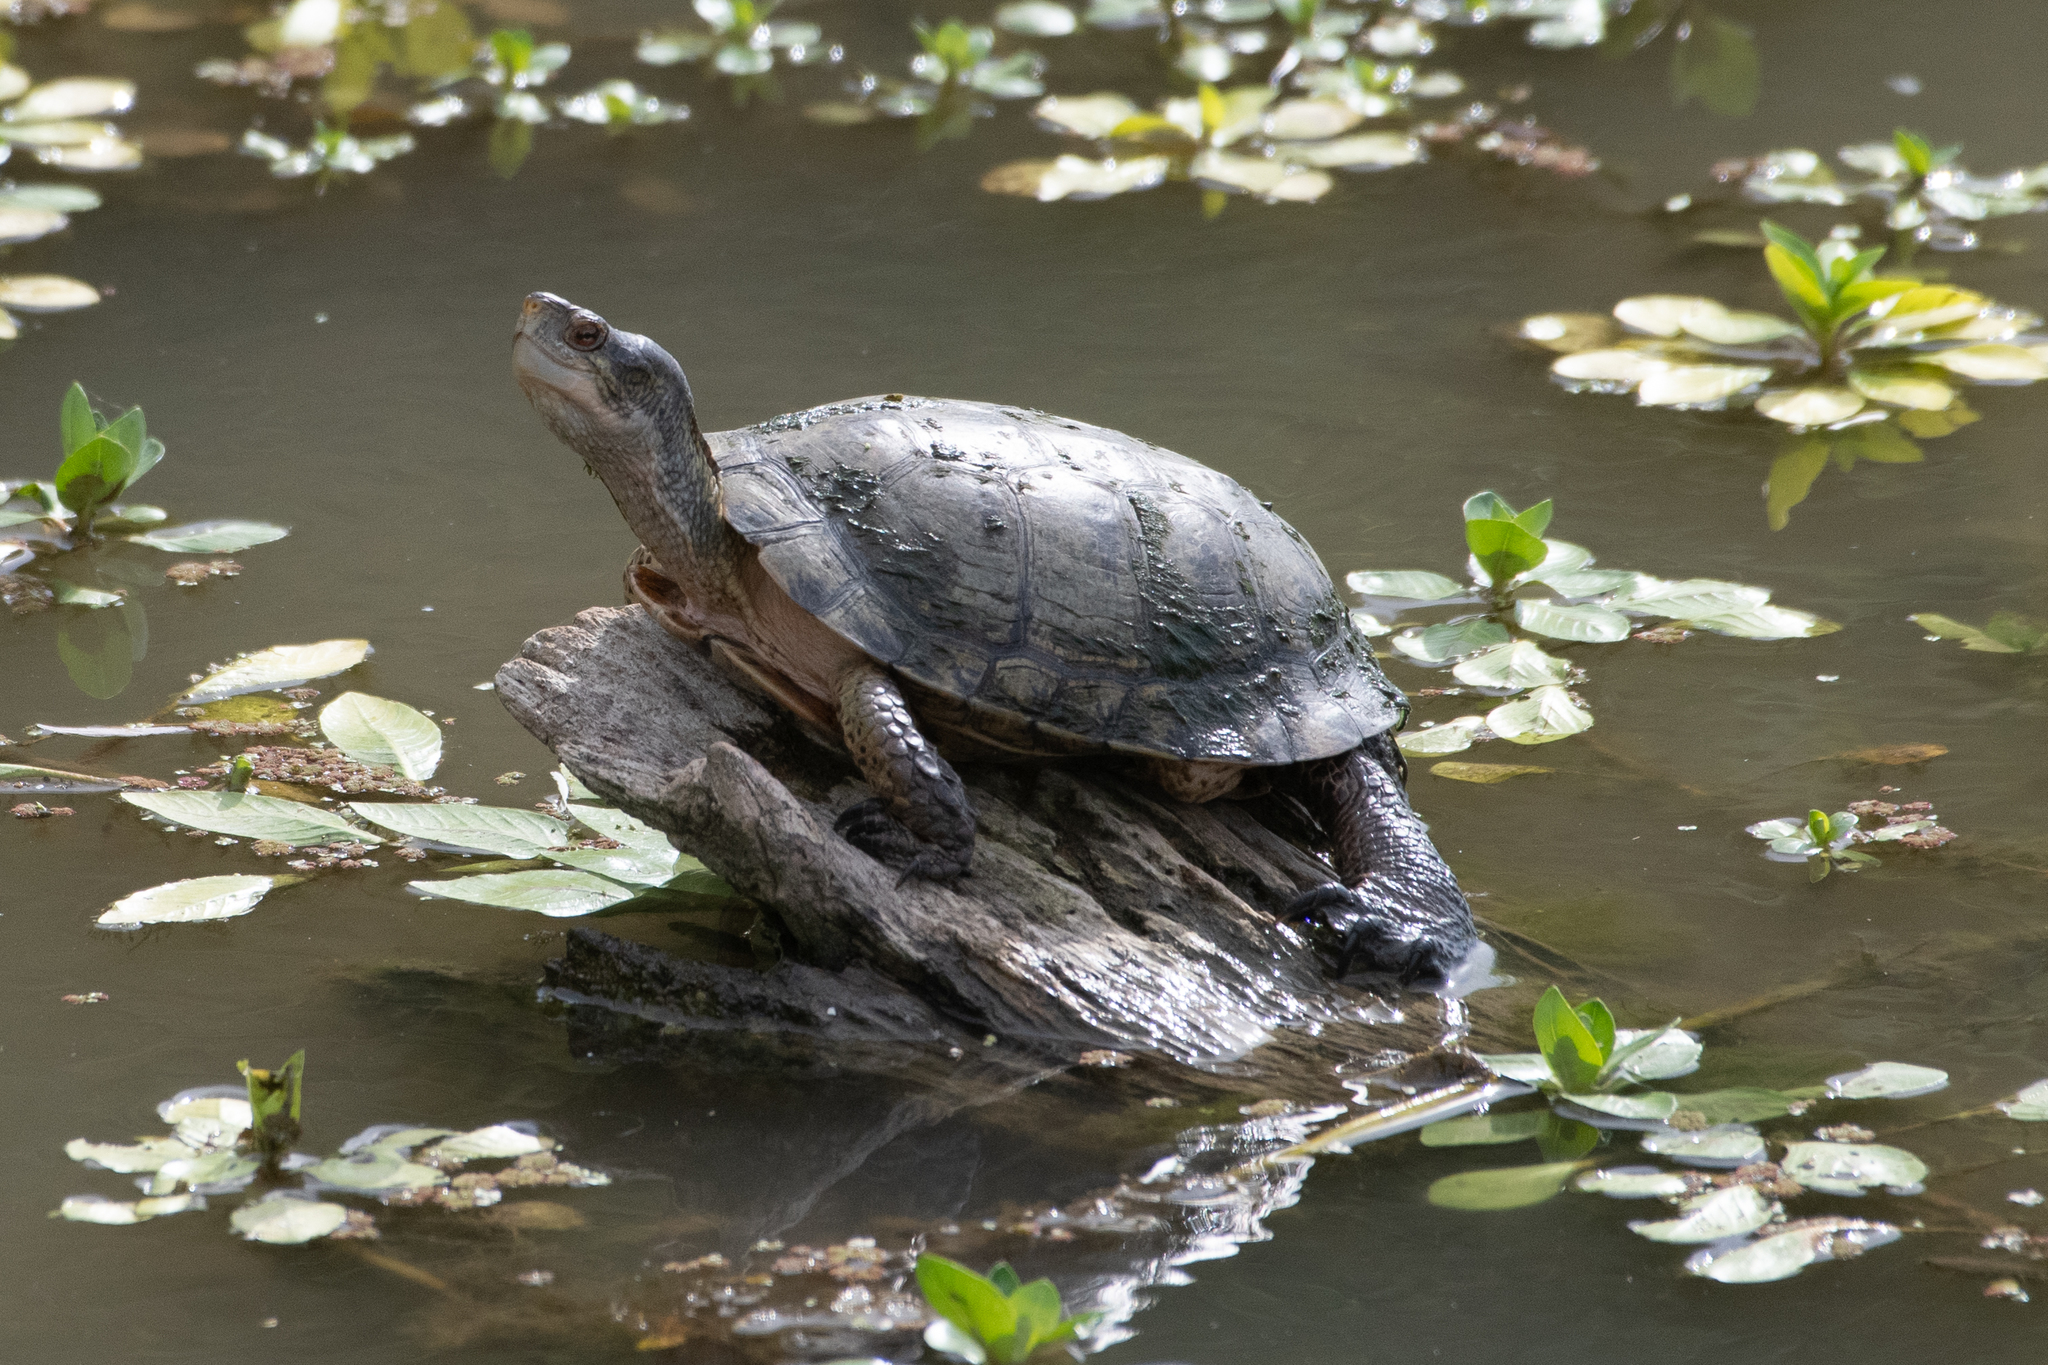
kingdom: Animalia
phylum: Chordata
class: Testudines
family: Emydidae
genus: Actinemys
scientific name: Actinemys marmorata
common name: Western pond turtle
